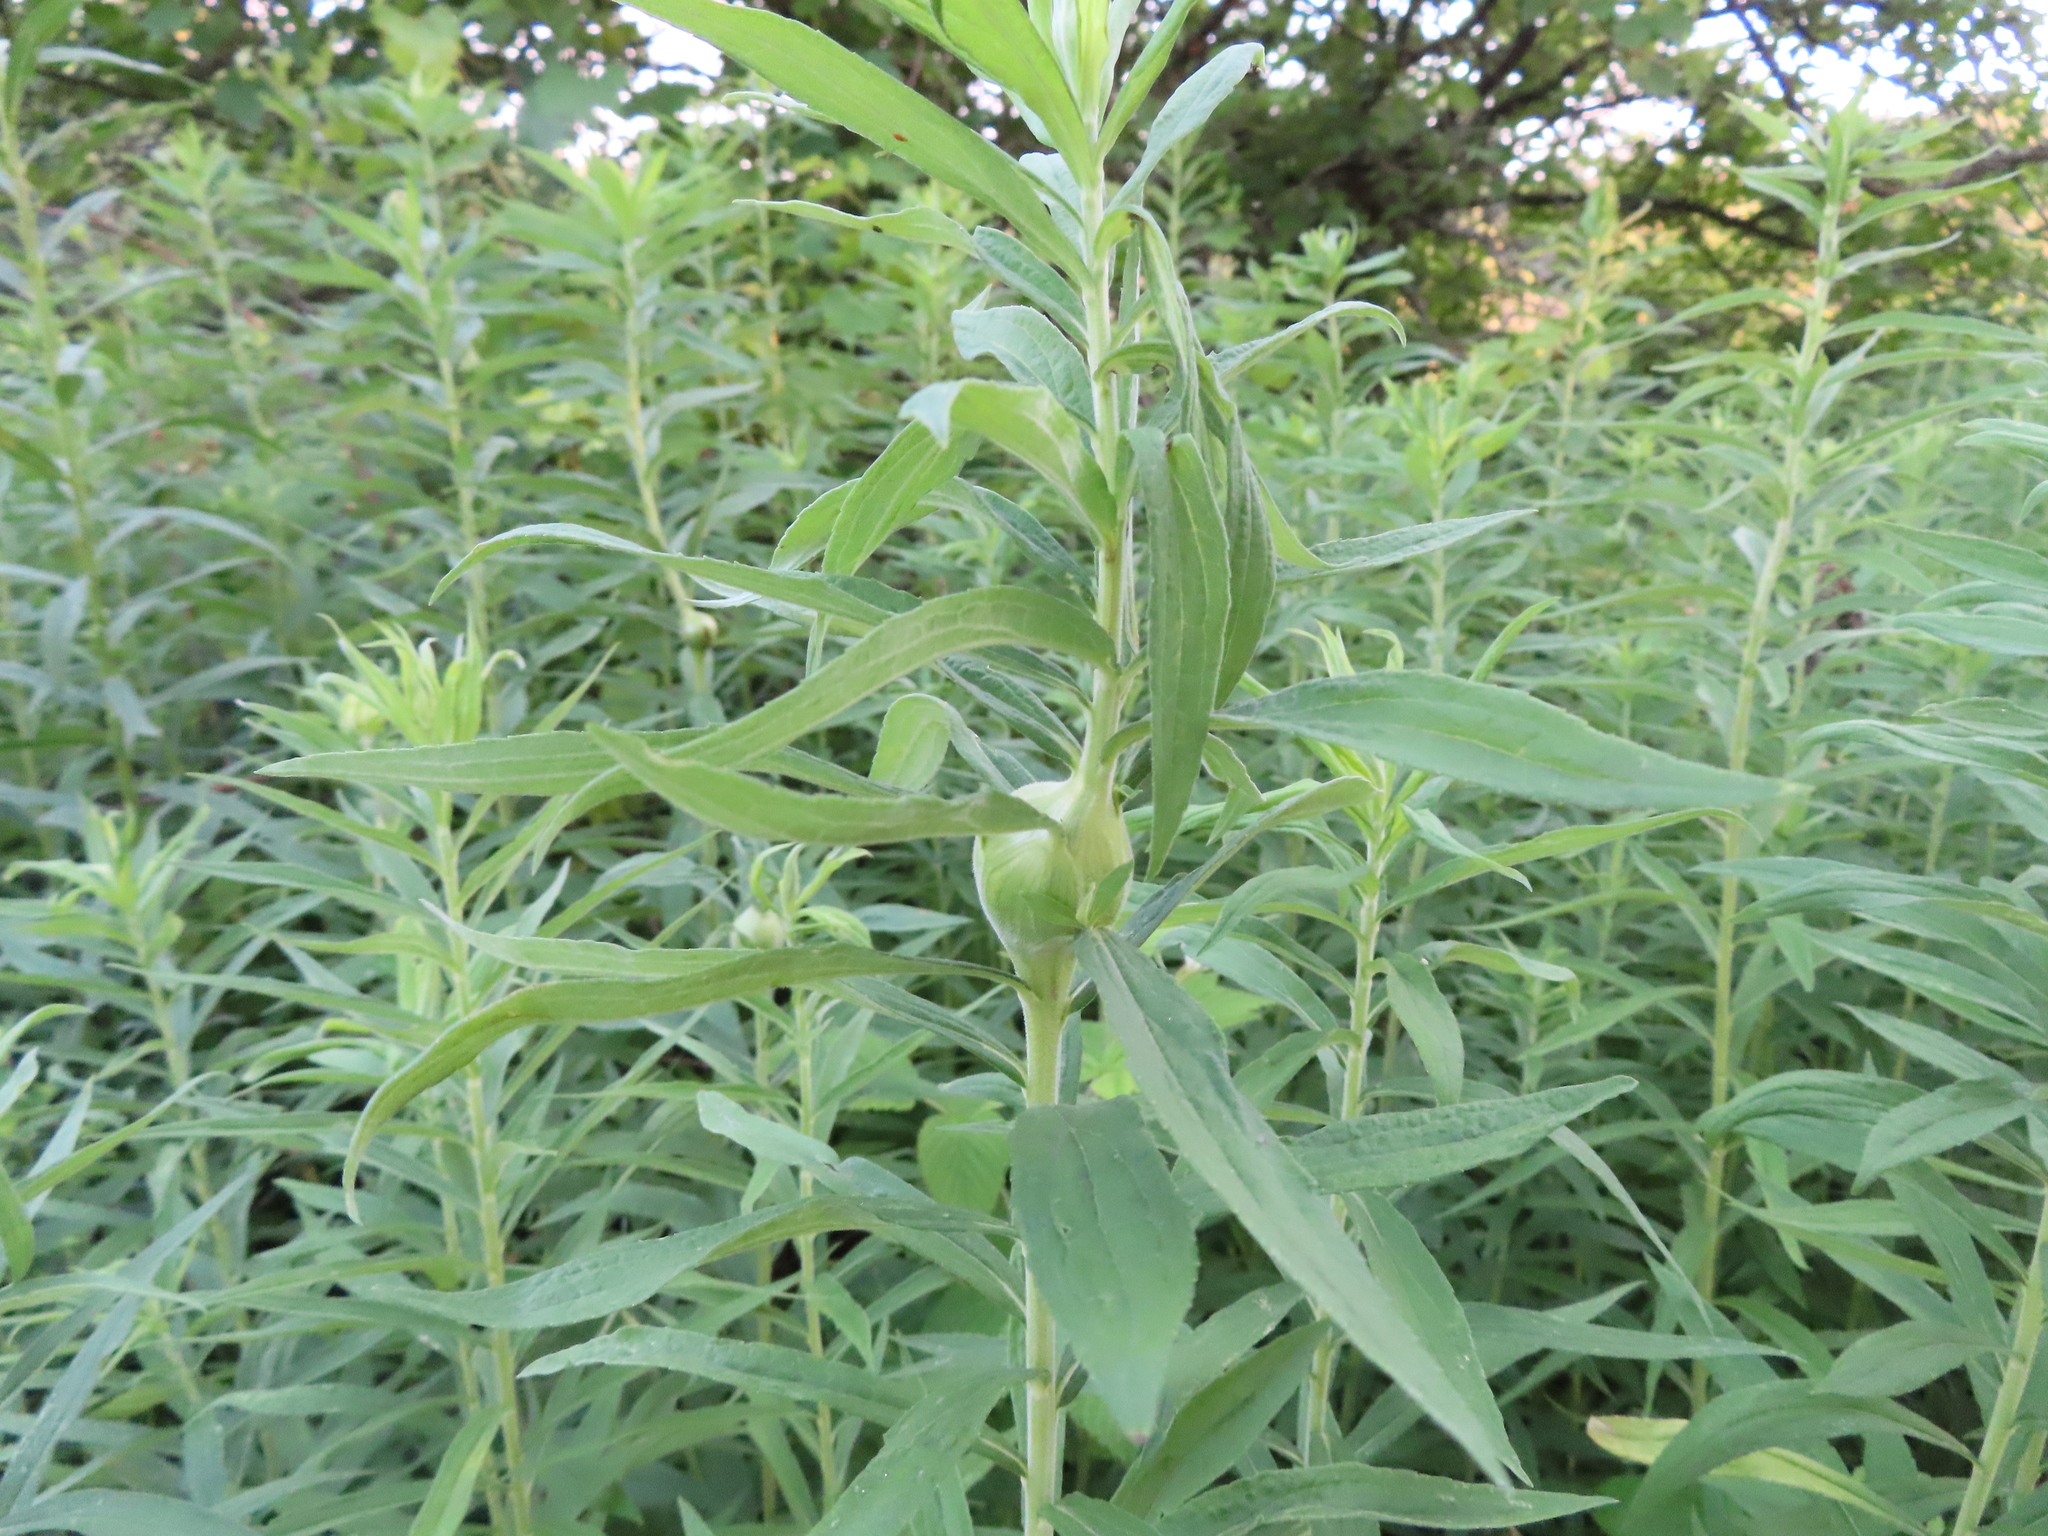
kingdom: Animalia
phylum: Arthropoda
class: Insecta
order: Diptera
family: Tephritidae
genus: Eurosta
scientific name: Eurosta solidaginis
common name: Goldenrod gall fly
